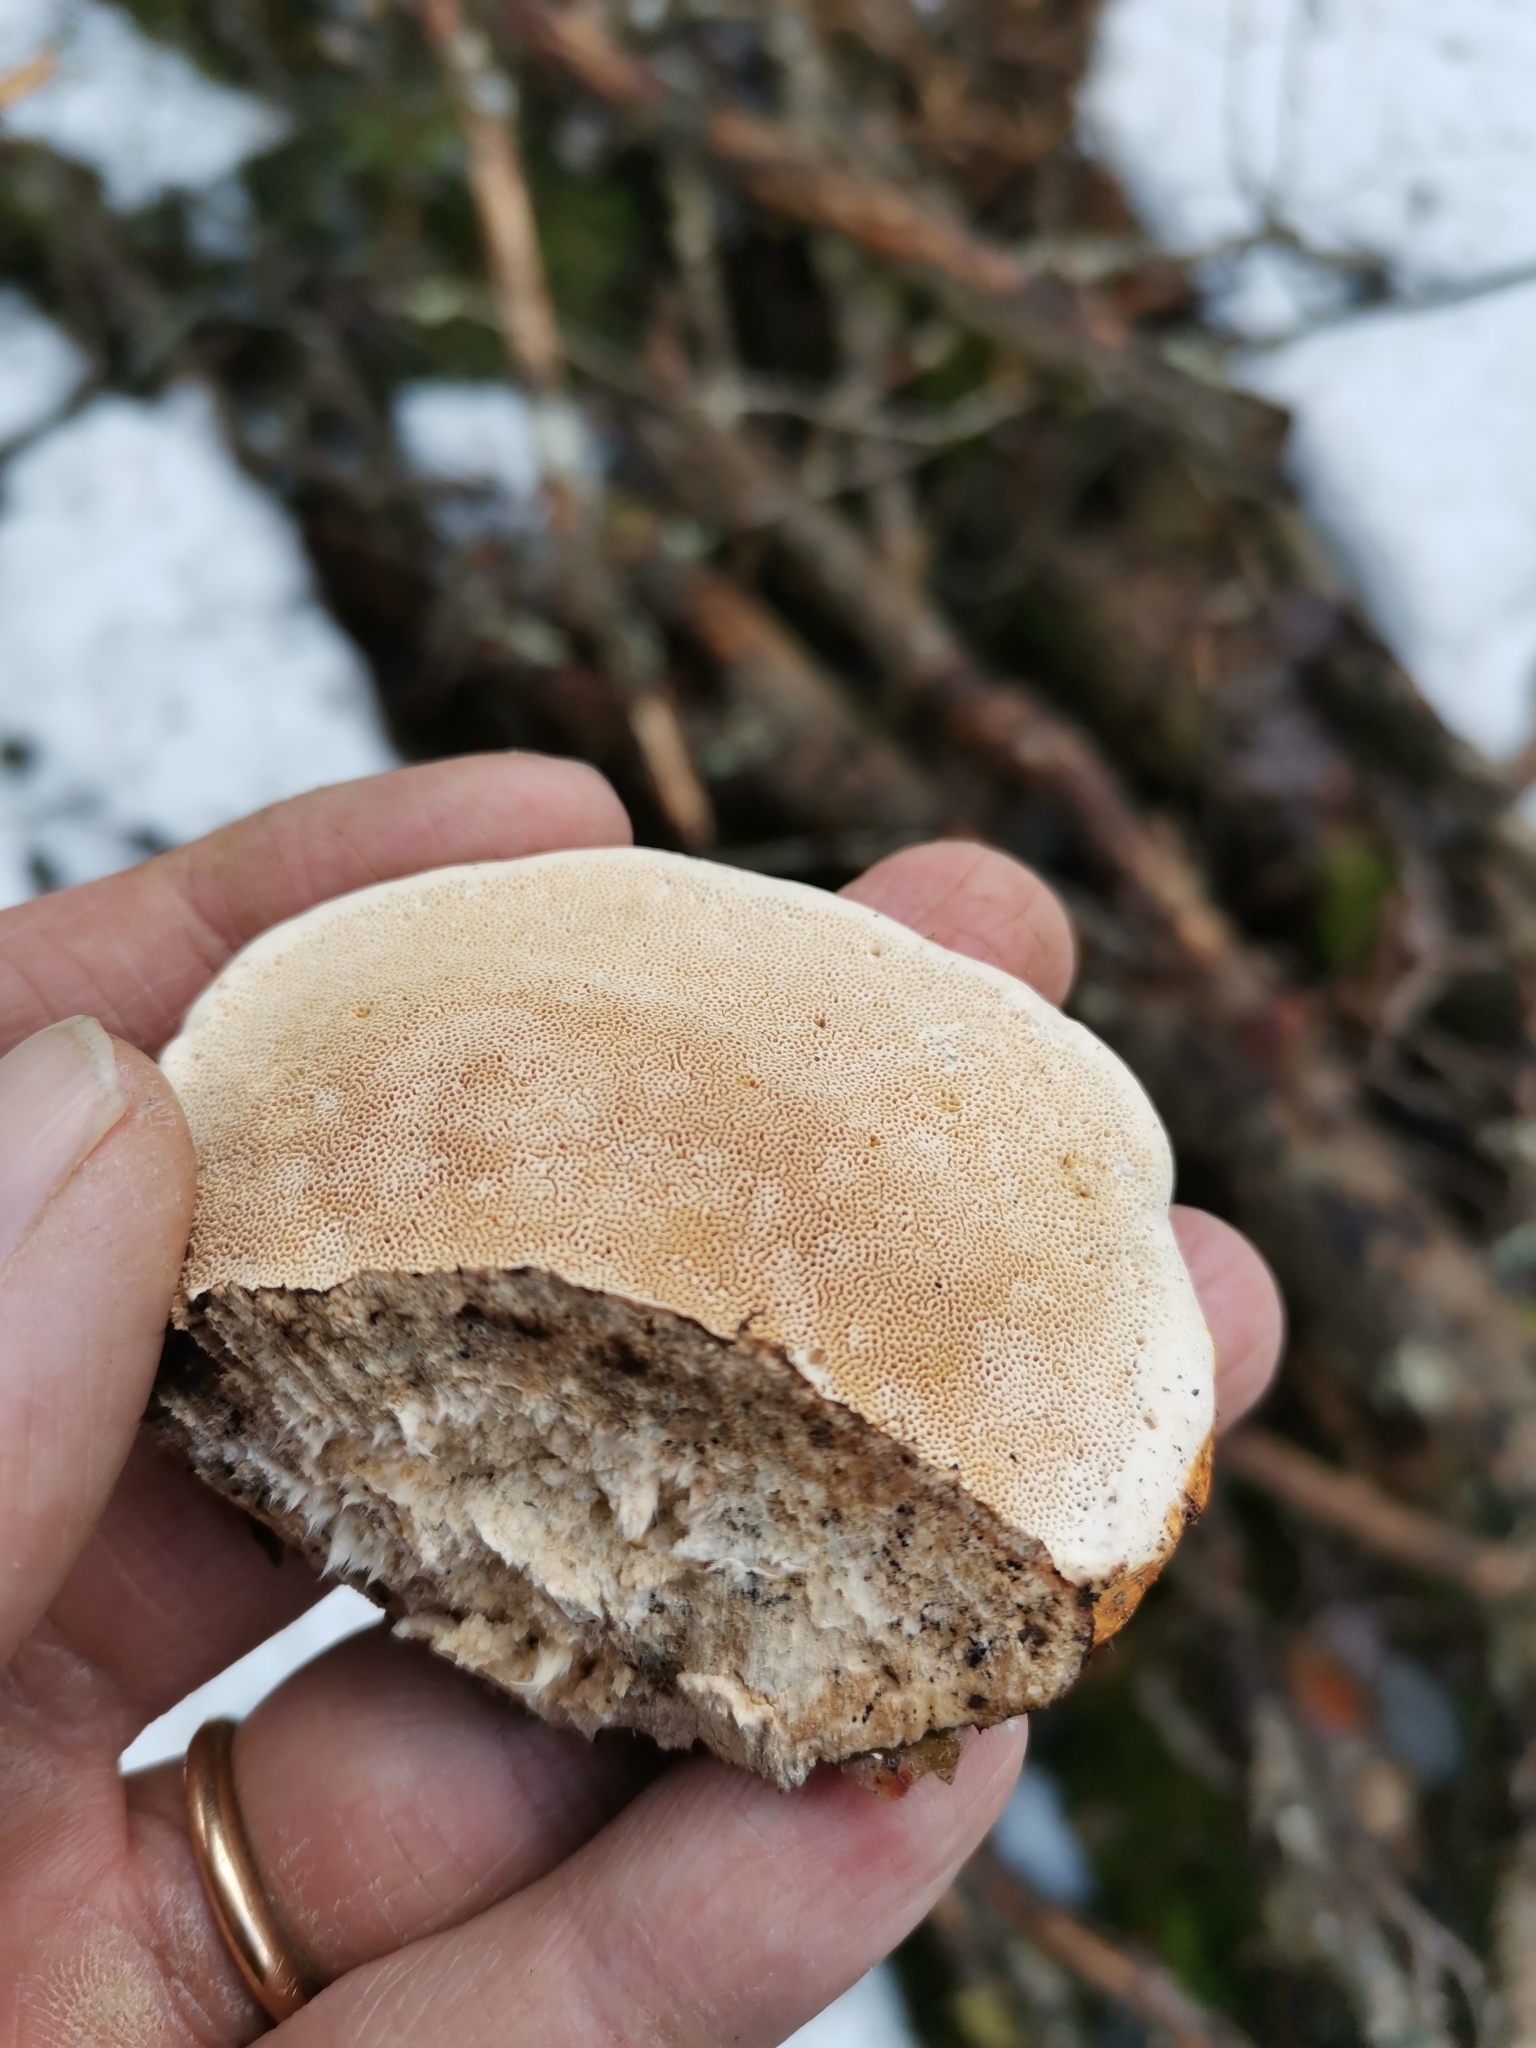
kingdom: Fungi
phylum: Basidiomycota
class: Agaricomycetes
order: Polyporales
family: Fomitopsidaceae
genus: Fomitopsis
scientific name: Fomitopsis pinicola
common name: Red-belted bracket
